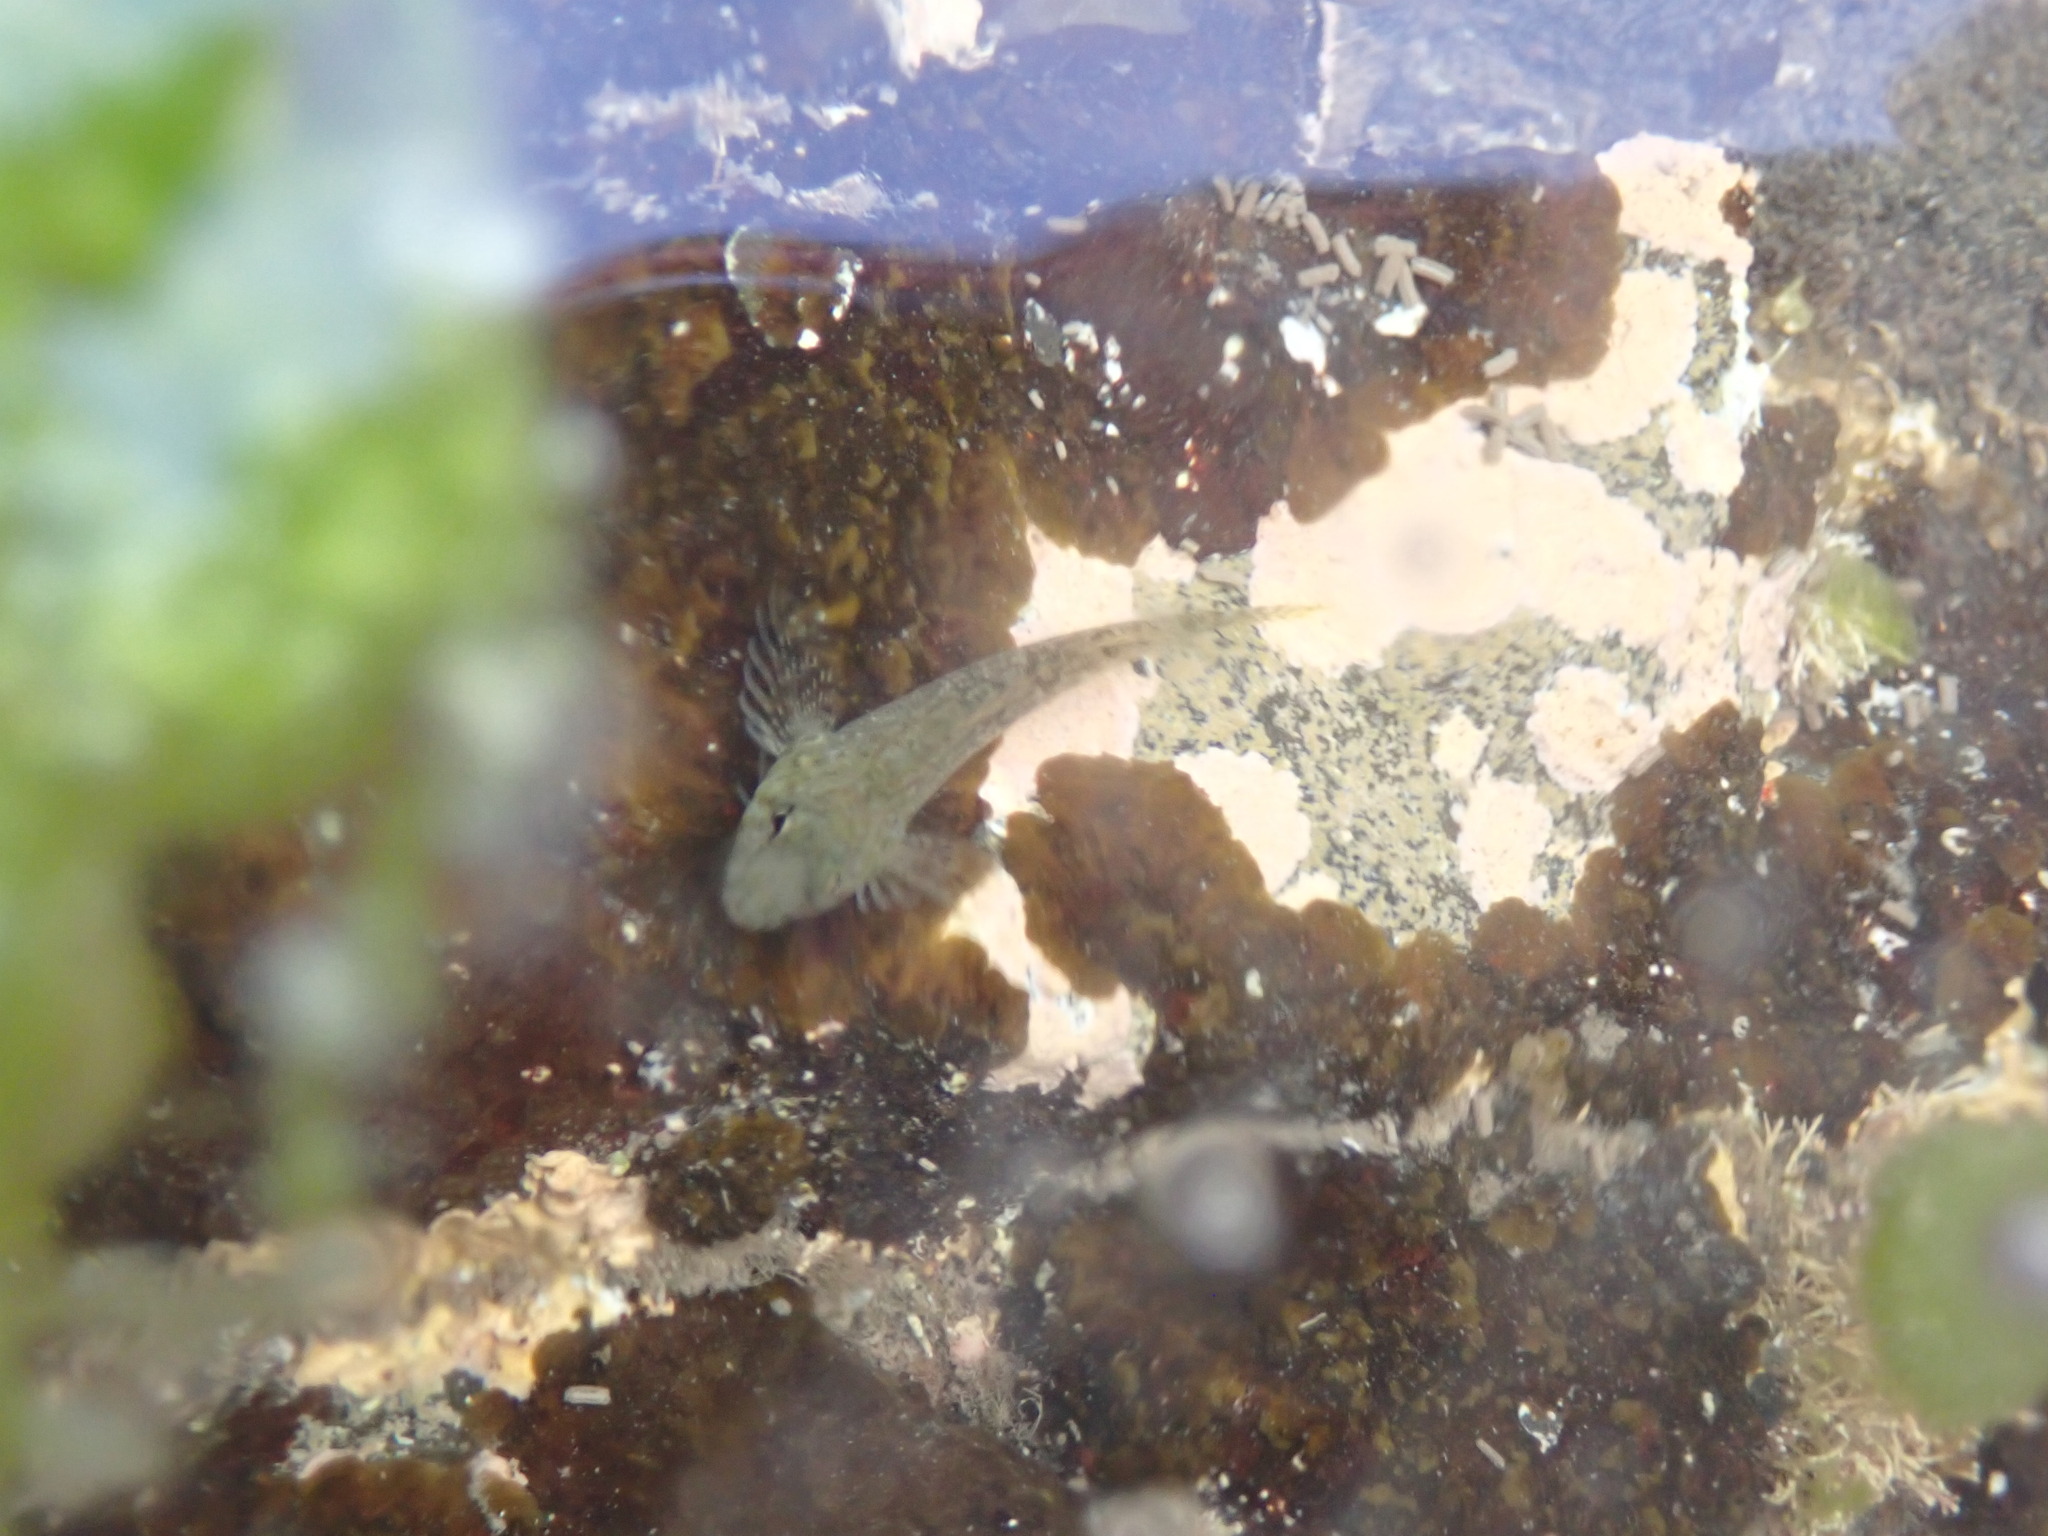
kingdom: Animalia
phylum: Chordata
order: Perciformes
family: Tripterygiidae
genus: Bellapiscis
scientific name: Bellapiscis medius
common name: Twister
